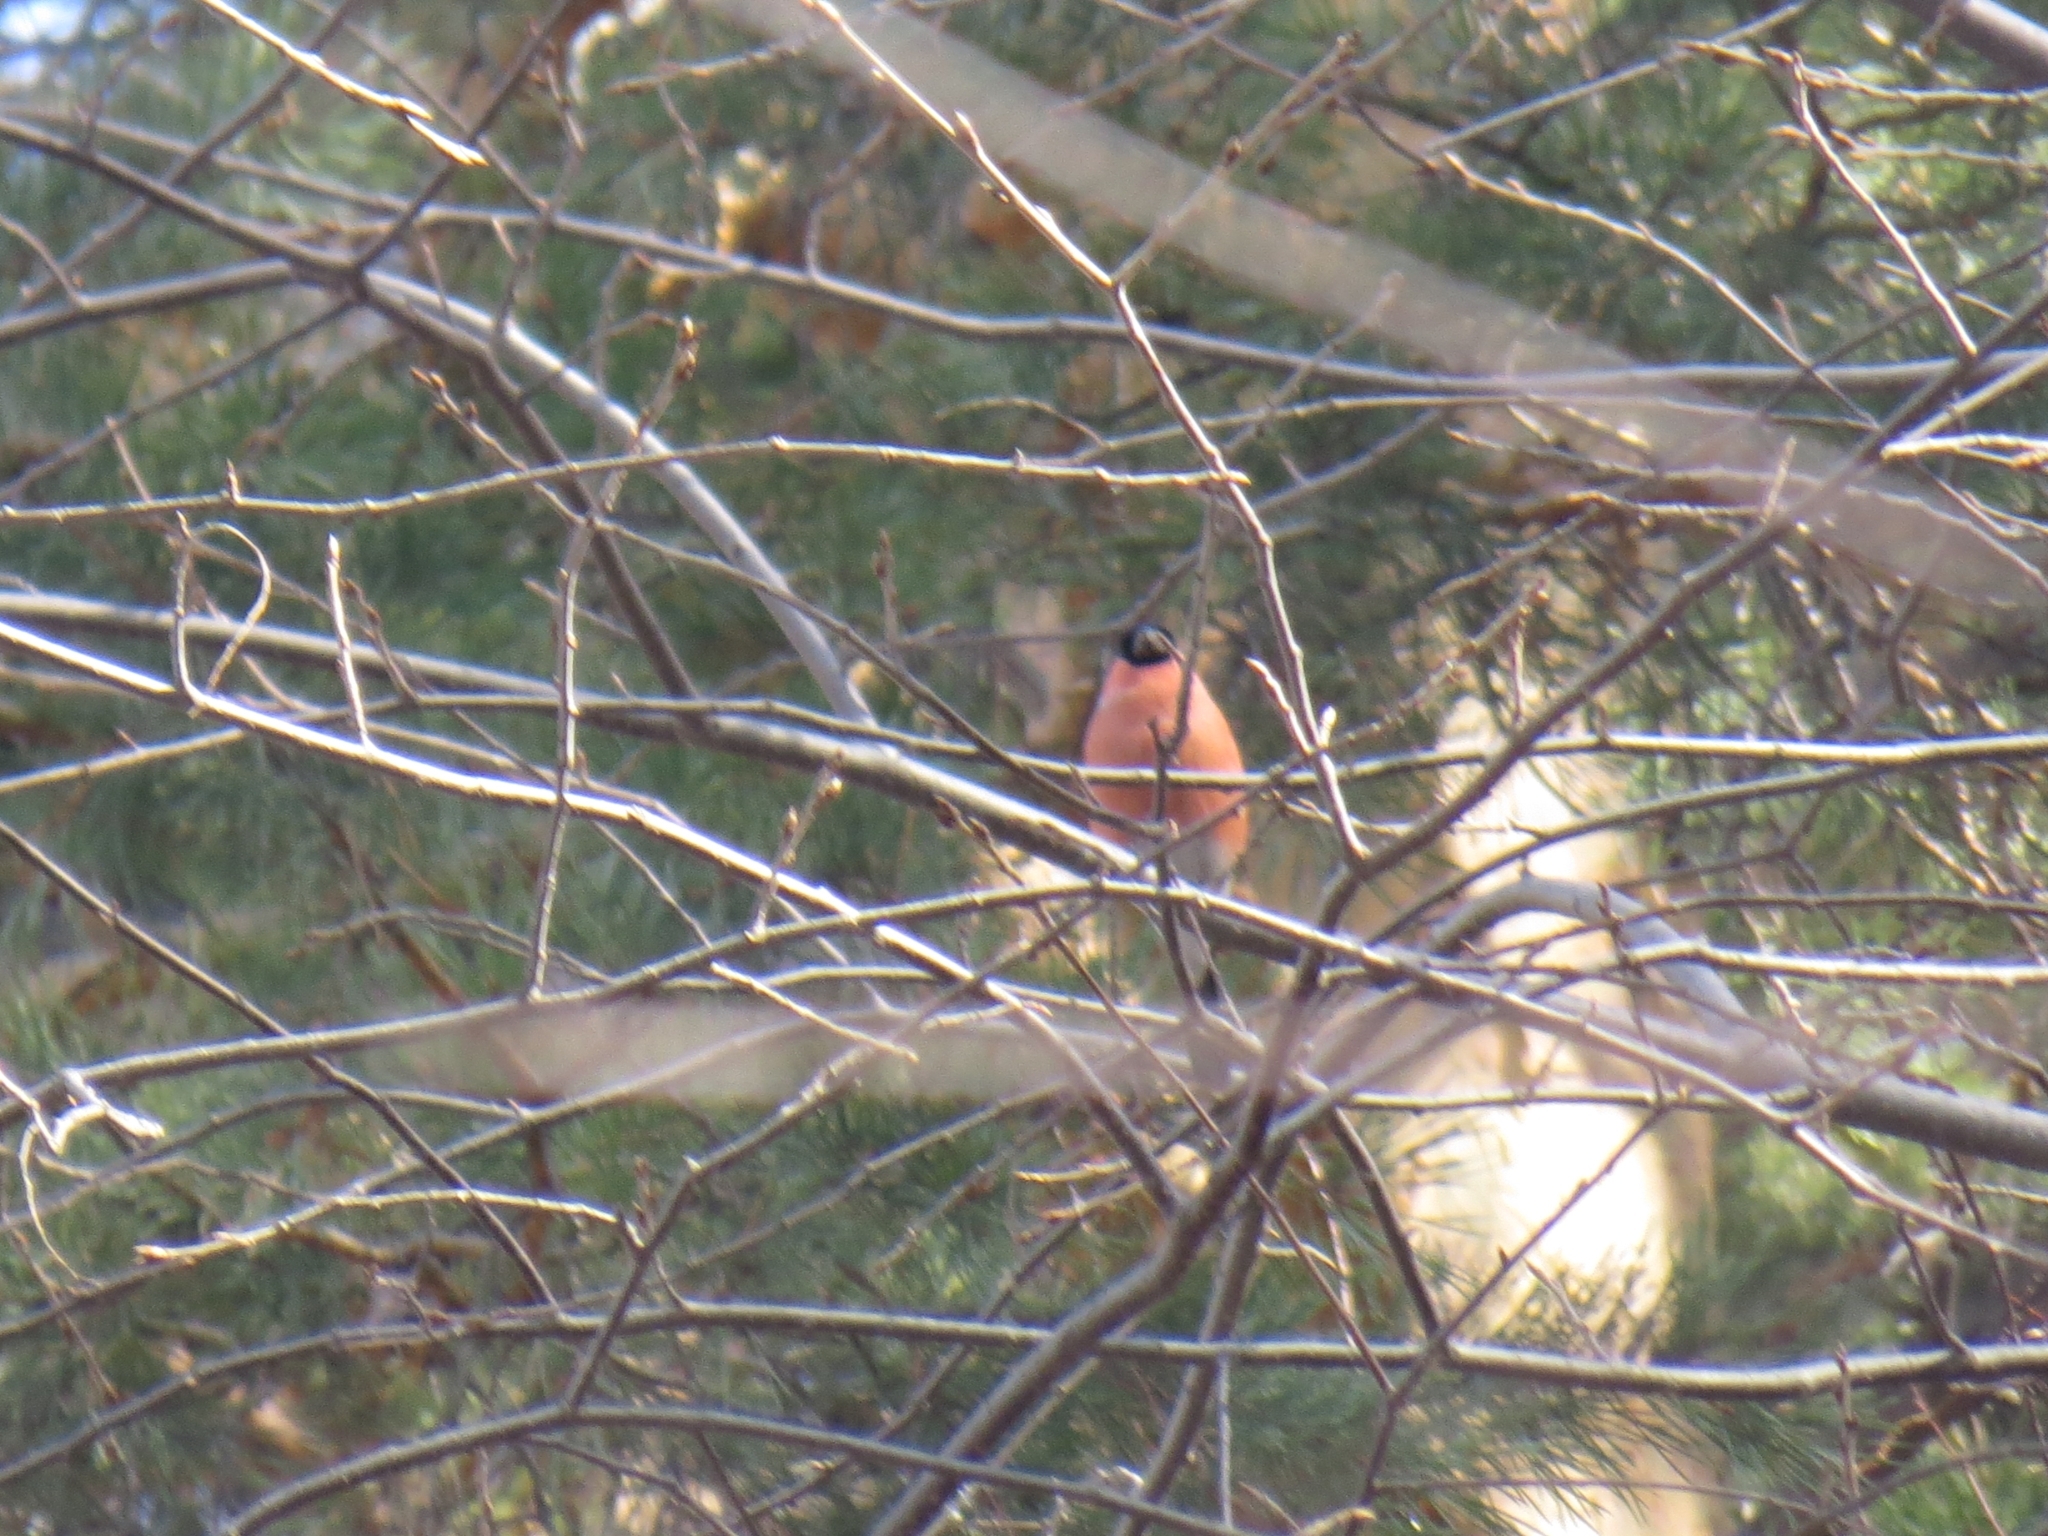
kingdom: Animalia
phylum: Chordata
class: Aves
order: Passeriformes
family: Fringillidae
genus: Pyrrhula
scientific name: Pyrrhula pyrrhula
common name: Eurasian bullfinch
